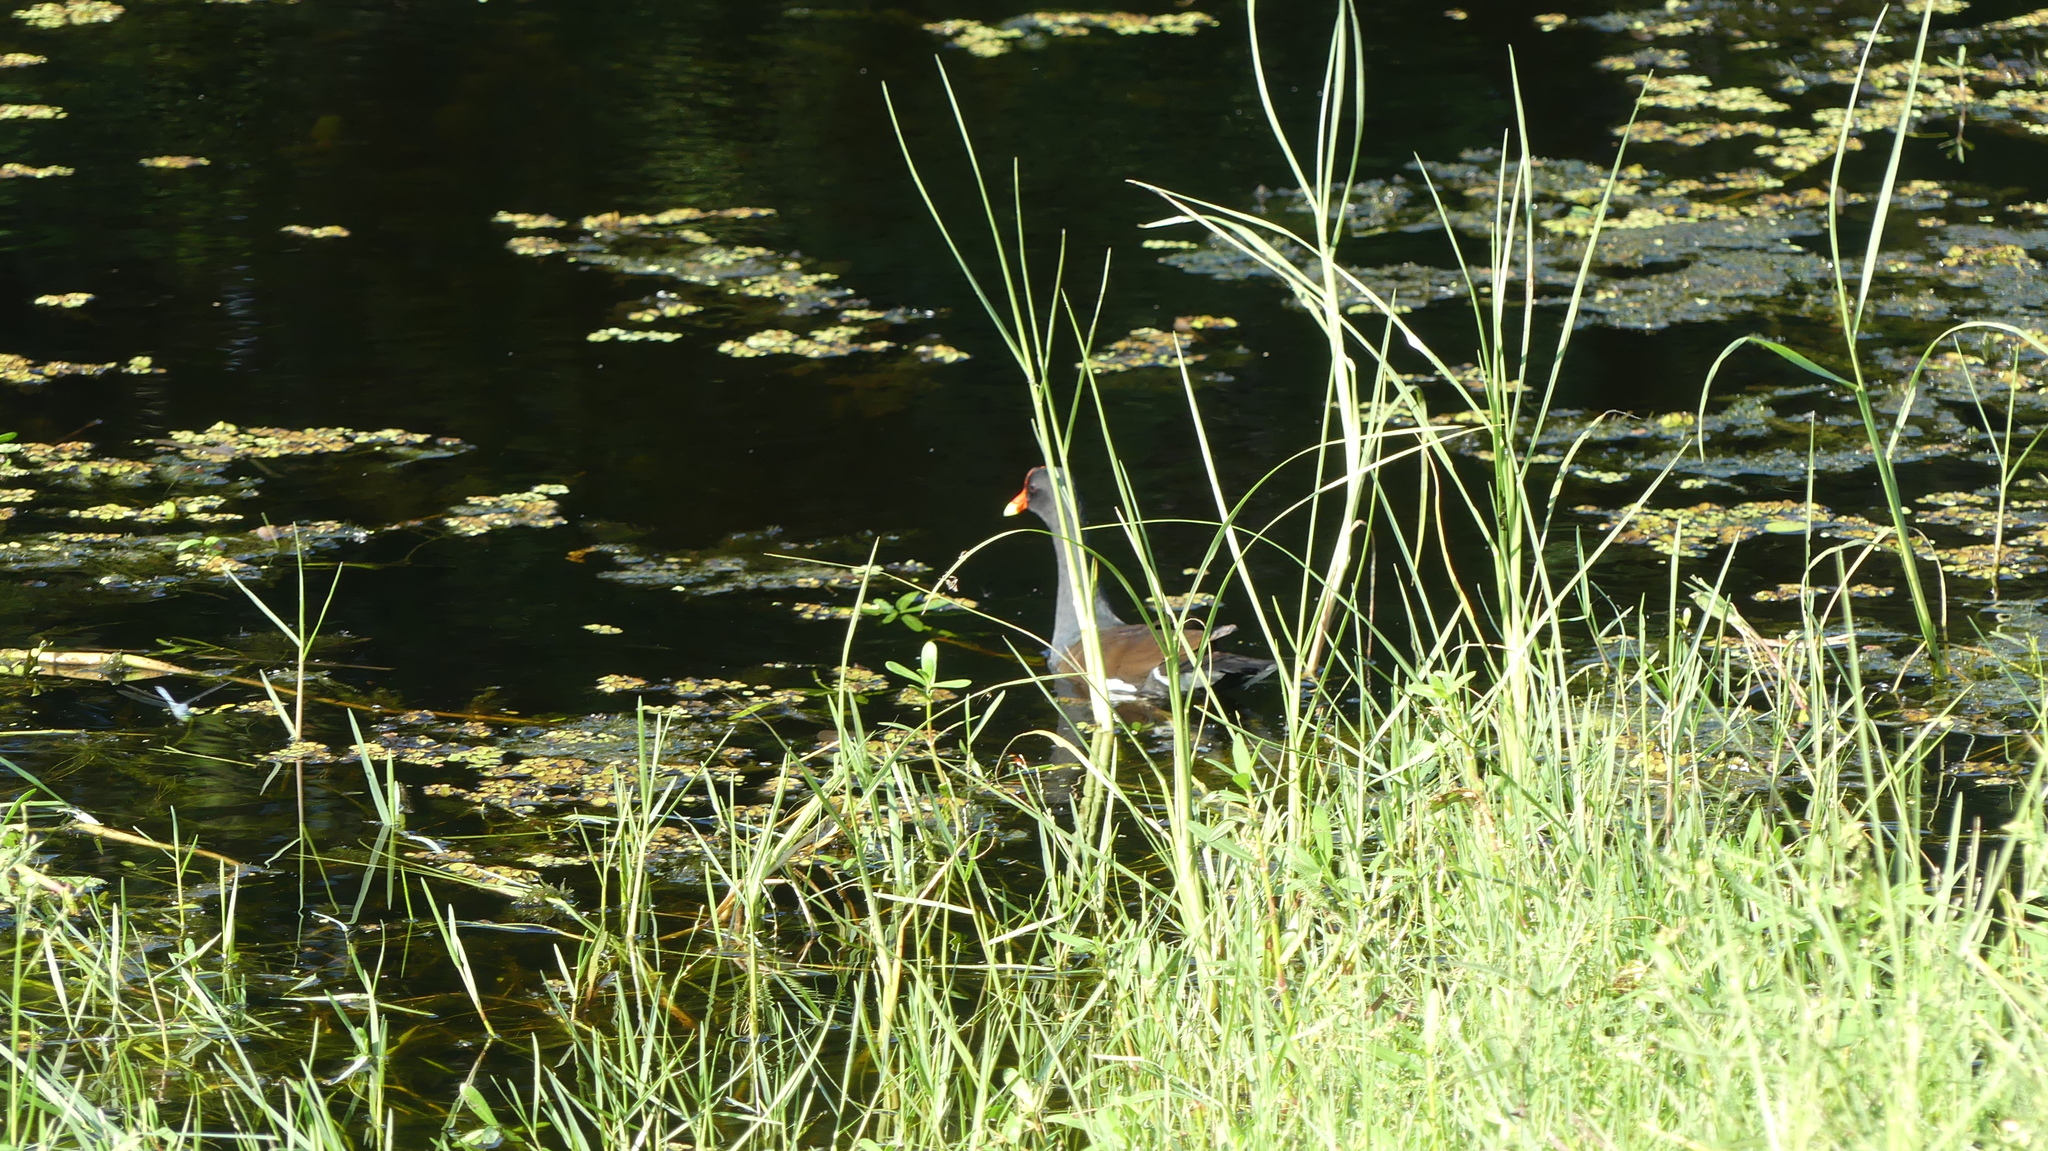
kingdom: Animalia
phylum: Chordata
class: Aves
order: Gruiformes
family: Rallidae
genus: Gallinula
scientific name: Gallinula chloropus
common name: Common moorhen
